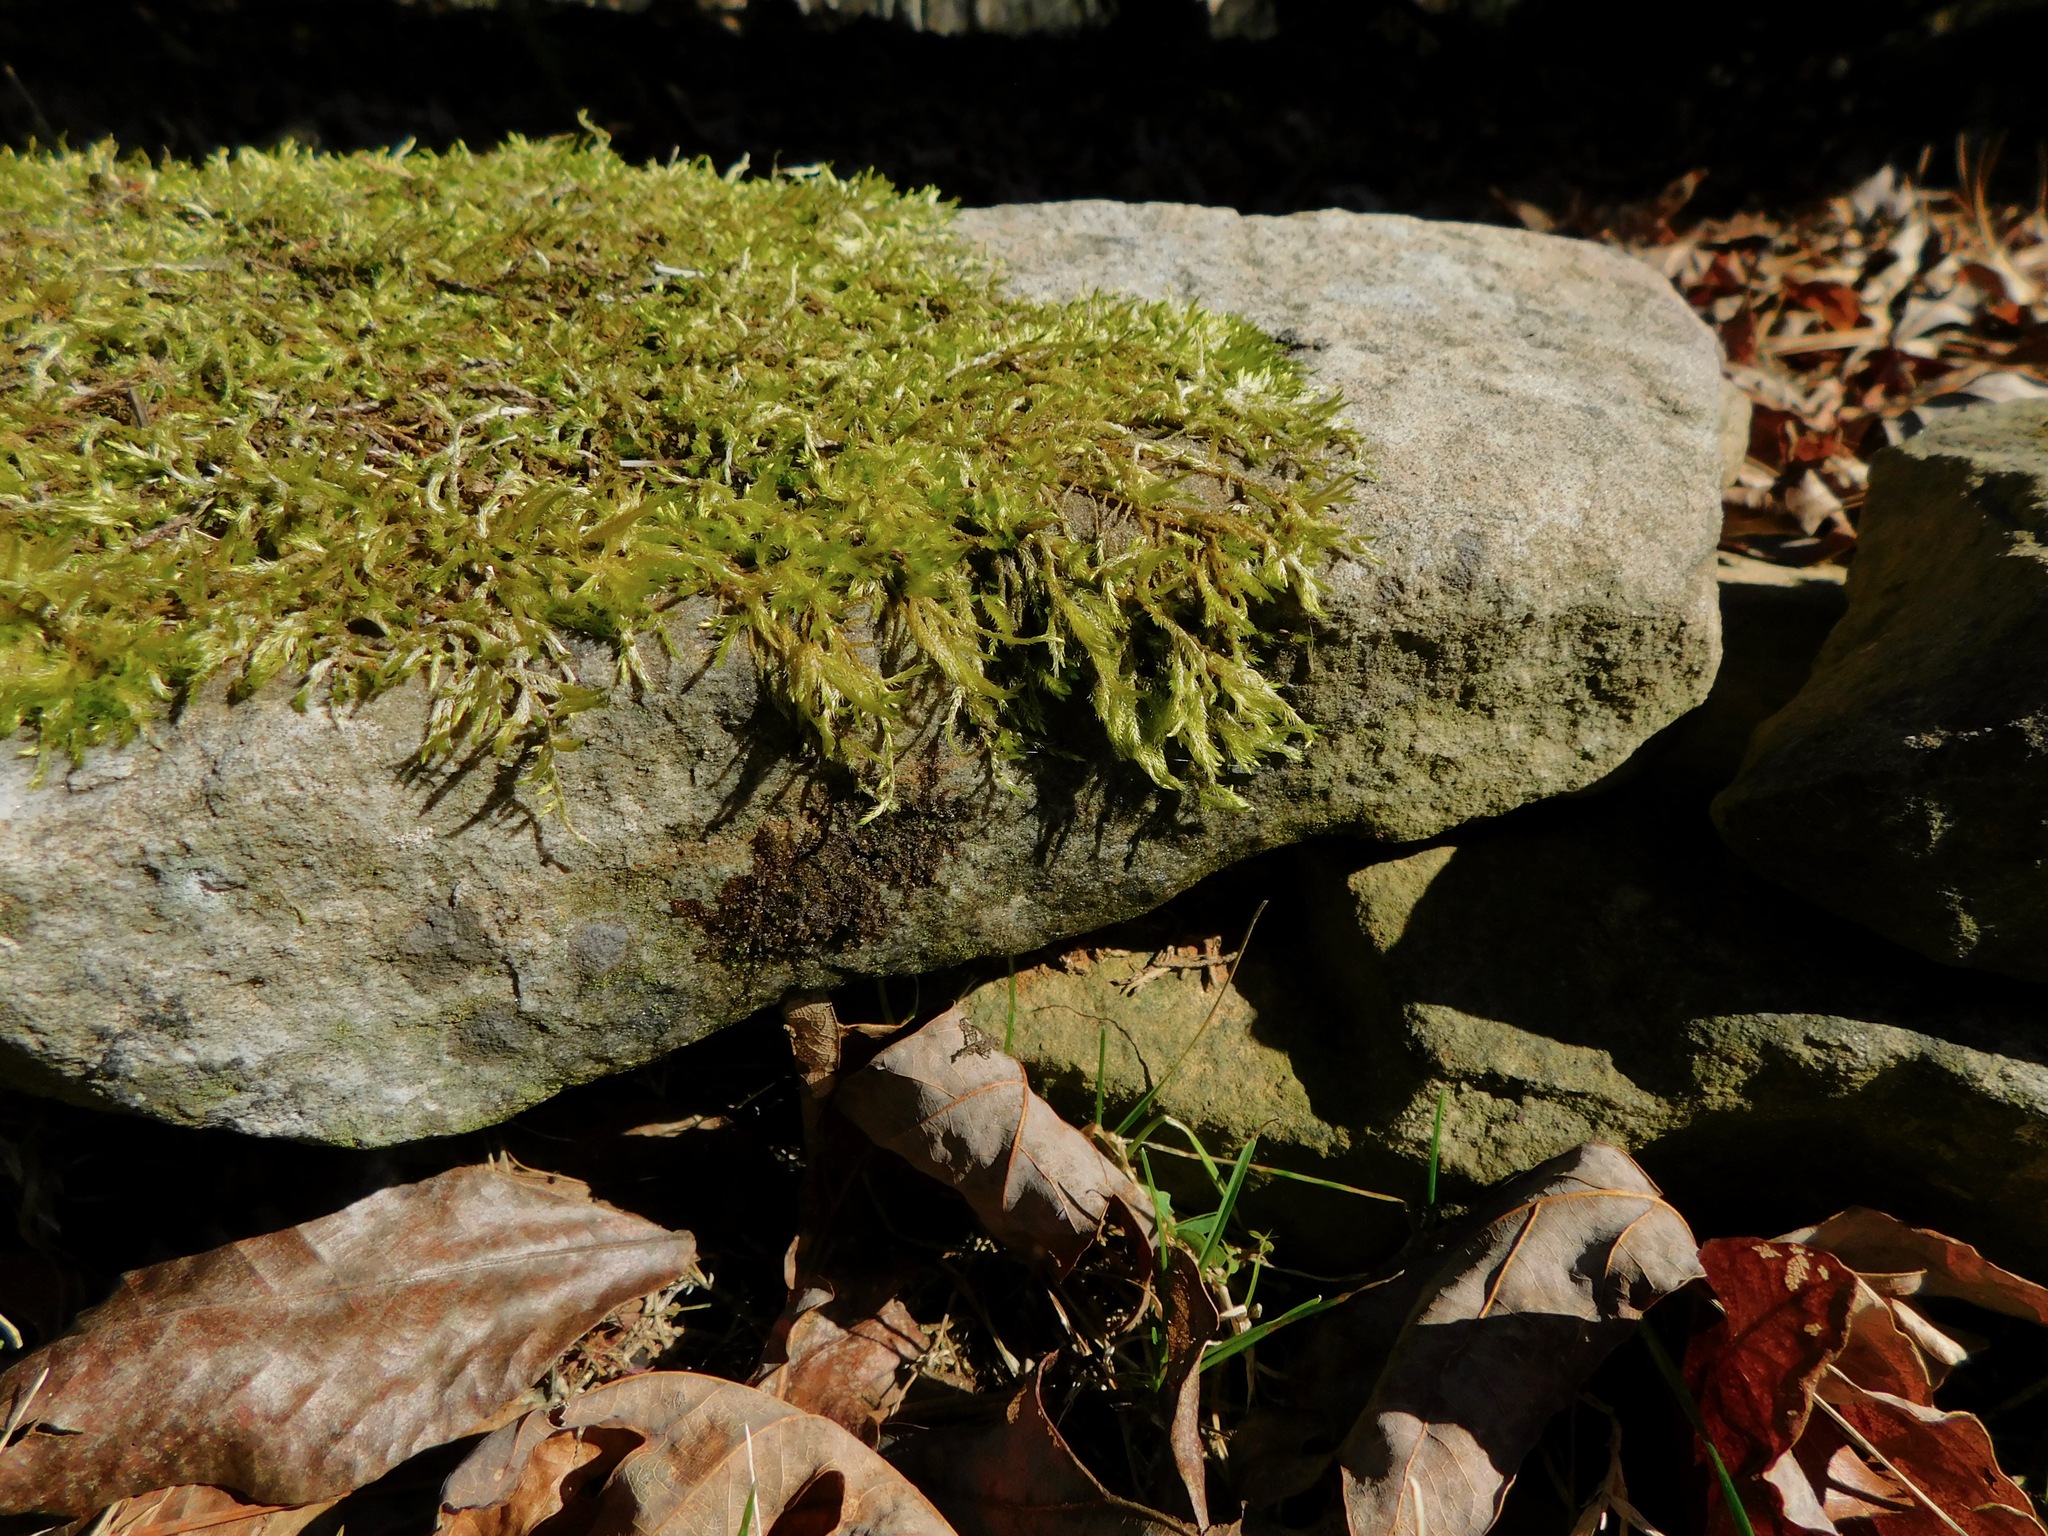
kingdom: Plantae
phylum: Bryophyta
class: Bryopsida
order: Hypnales
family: Callicladiaceae
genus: Callicladium
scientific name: Callicladium haldanianum
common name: Beautiful branch moss
